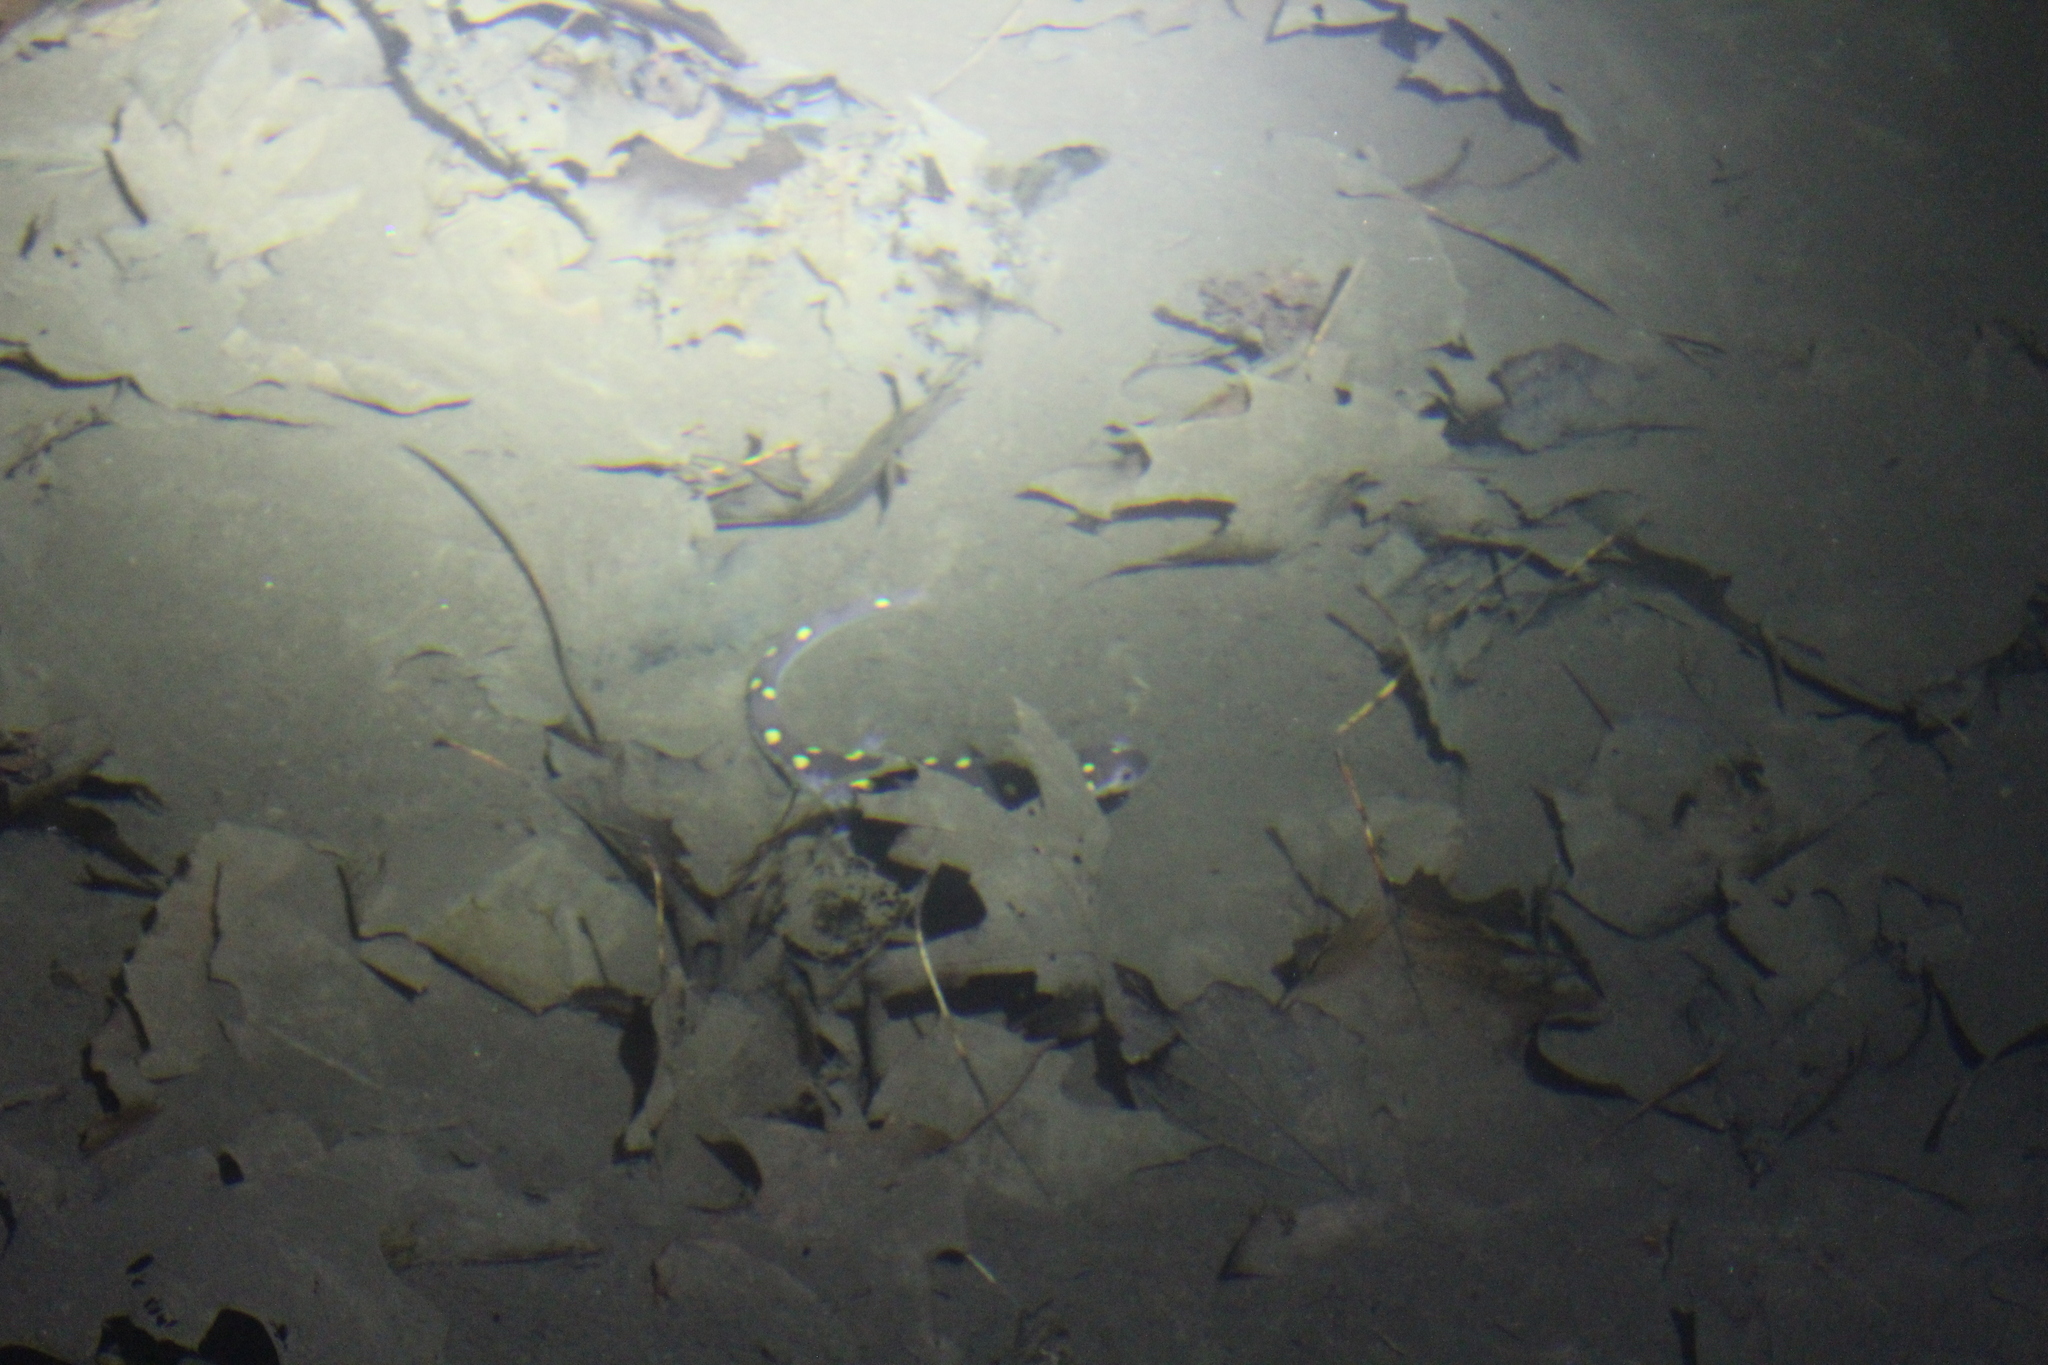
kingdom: Animalia
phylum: Chordata
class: Amphibia
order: Caudata
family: Ambystomatidae
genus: Ambystoma
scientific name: Ambystoma maculatum
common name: Spotted salamander
